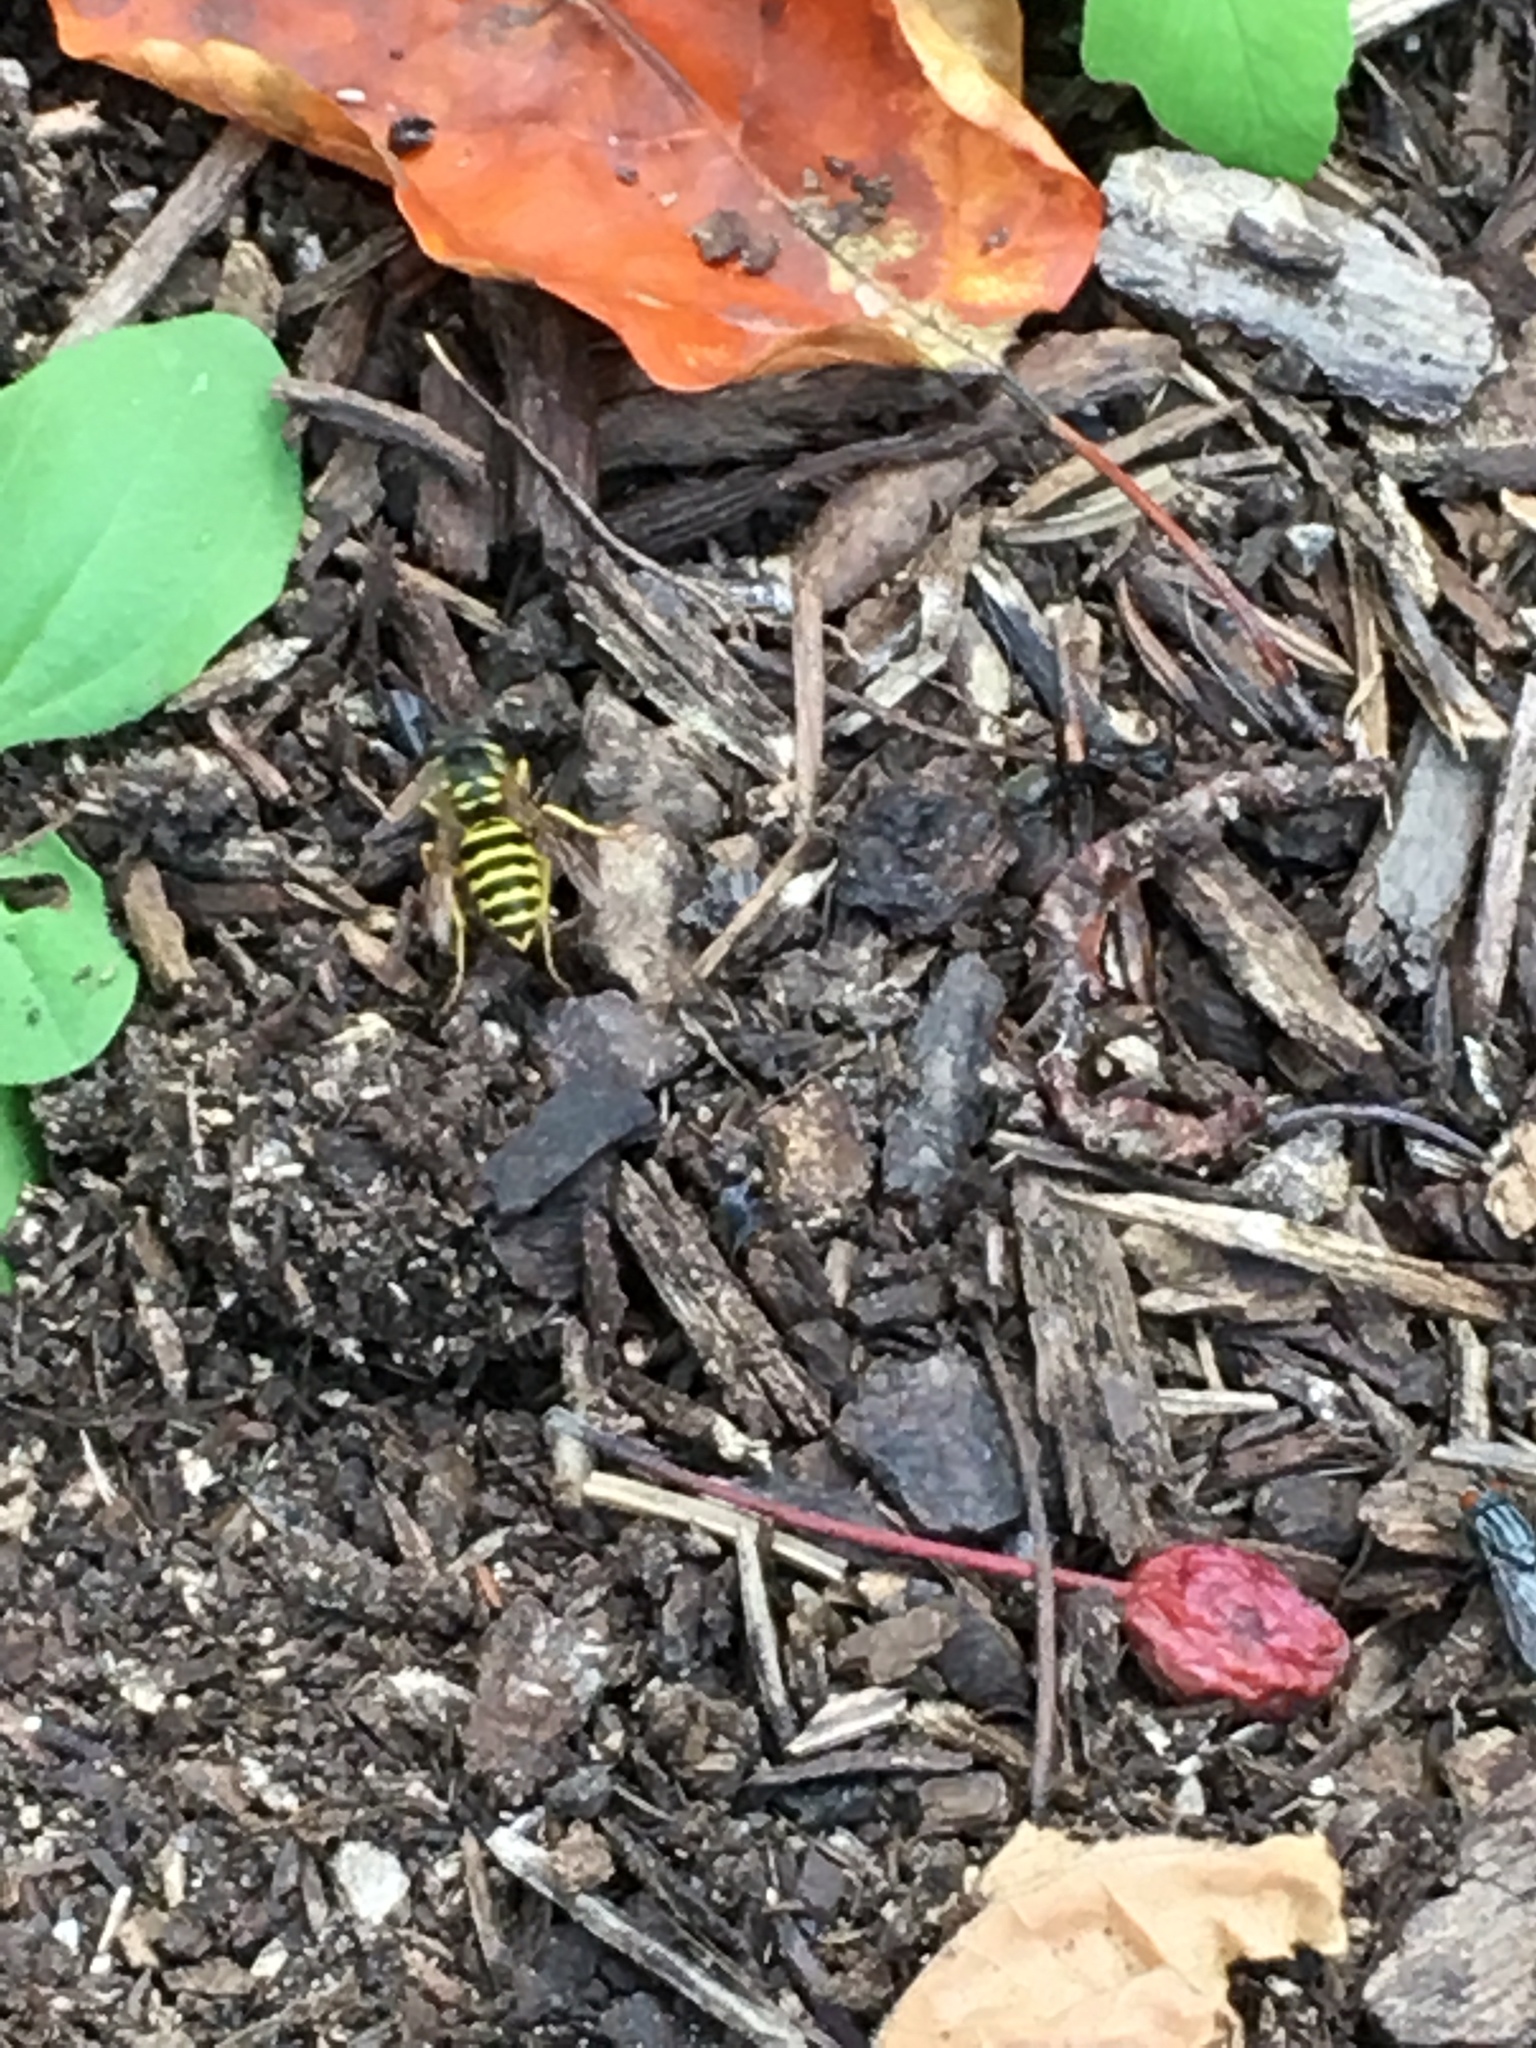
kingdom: Animalia
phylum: Arthropoda
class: Insecta
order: Hymenoptera
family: Vespidae
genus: Vespula
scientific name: Vespula maculifrons
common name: Eastern yellowjacket
